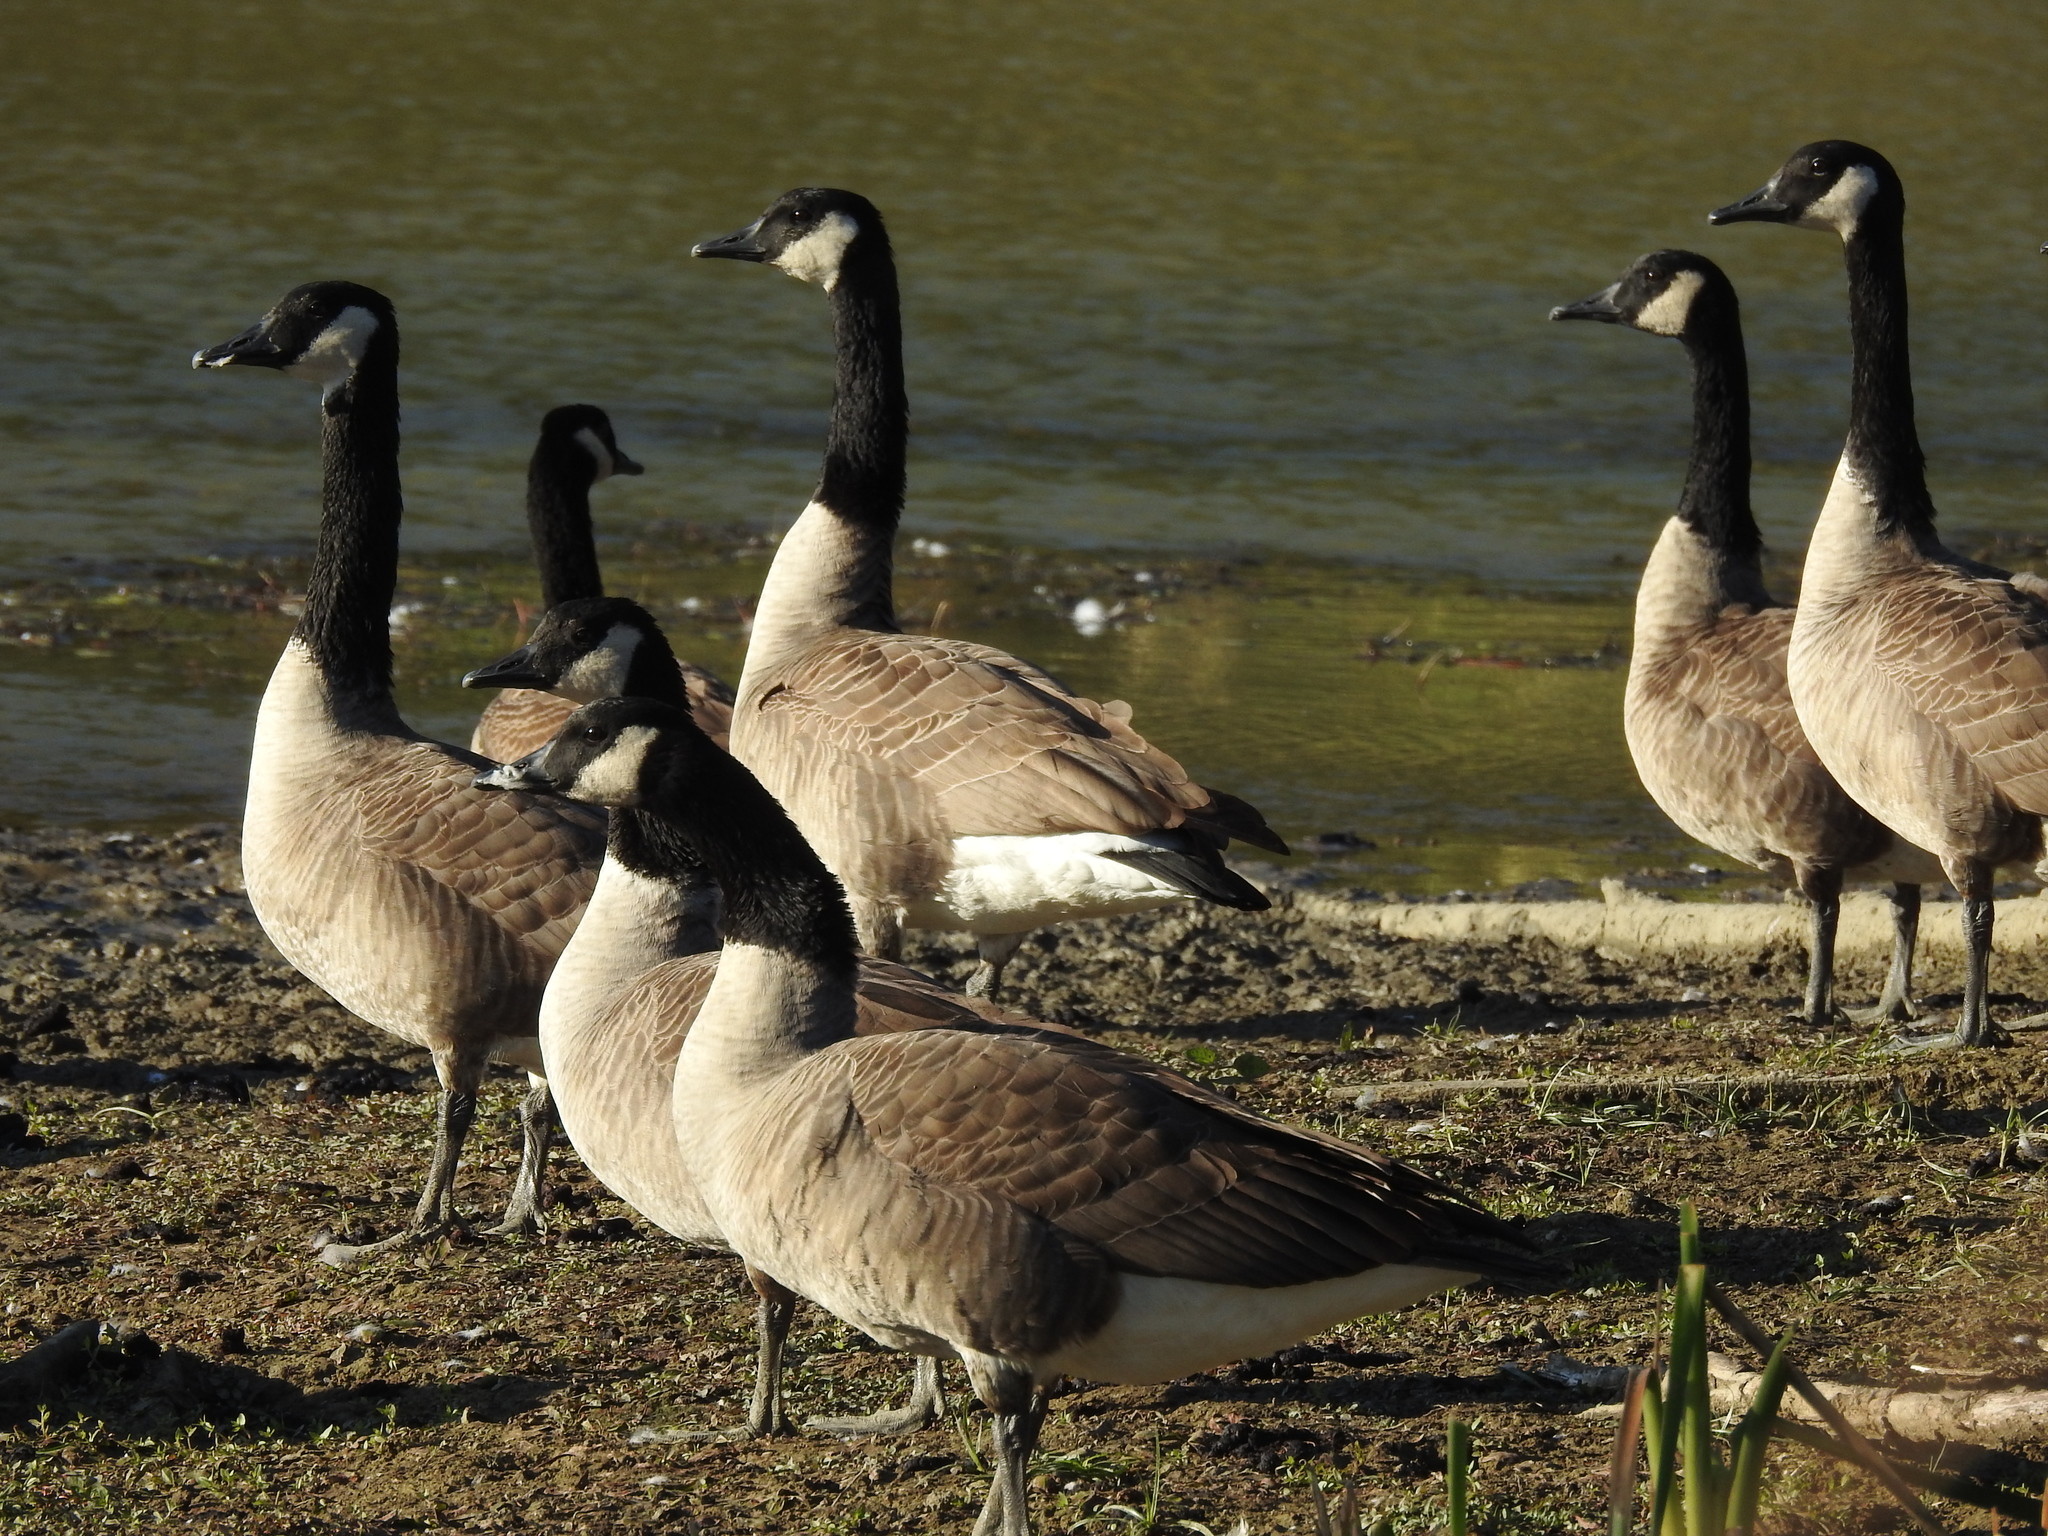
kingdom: Animalia
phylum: Chordata
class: Aves
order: Anseriformes
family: Anatidae
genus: Branta
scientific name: Branta canadensis
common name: Canada goose
